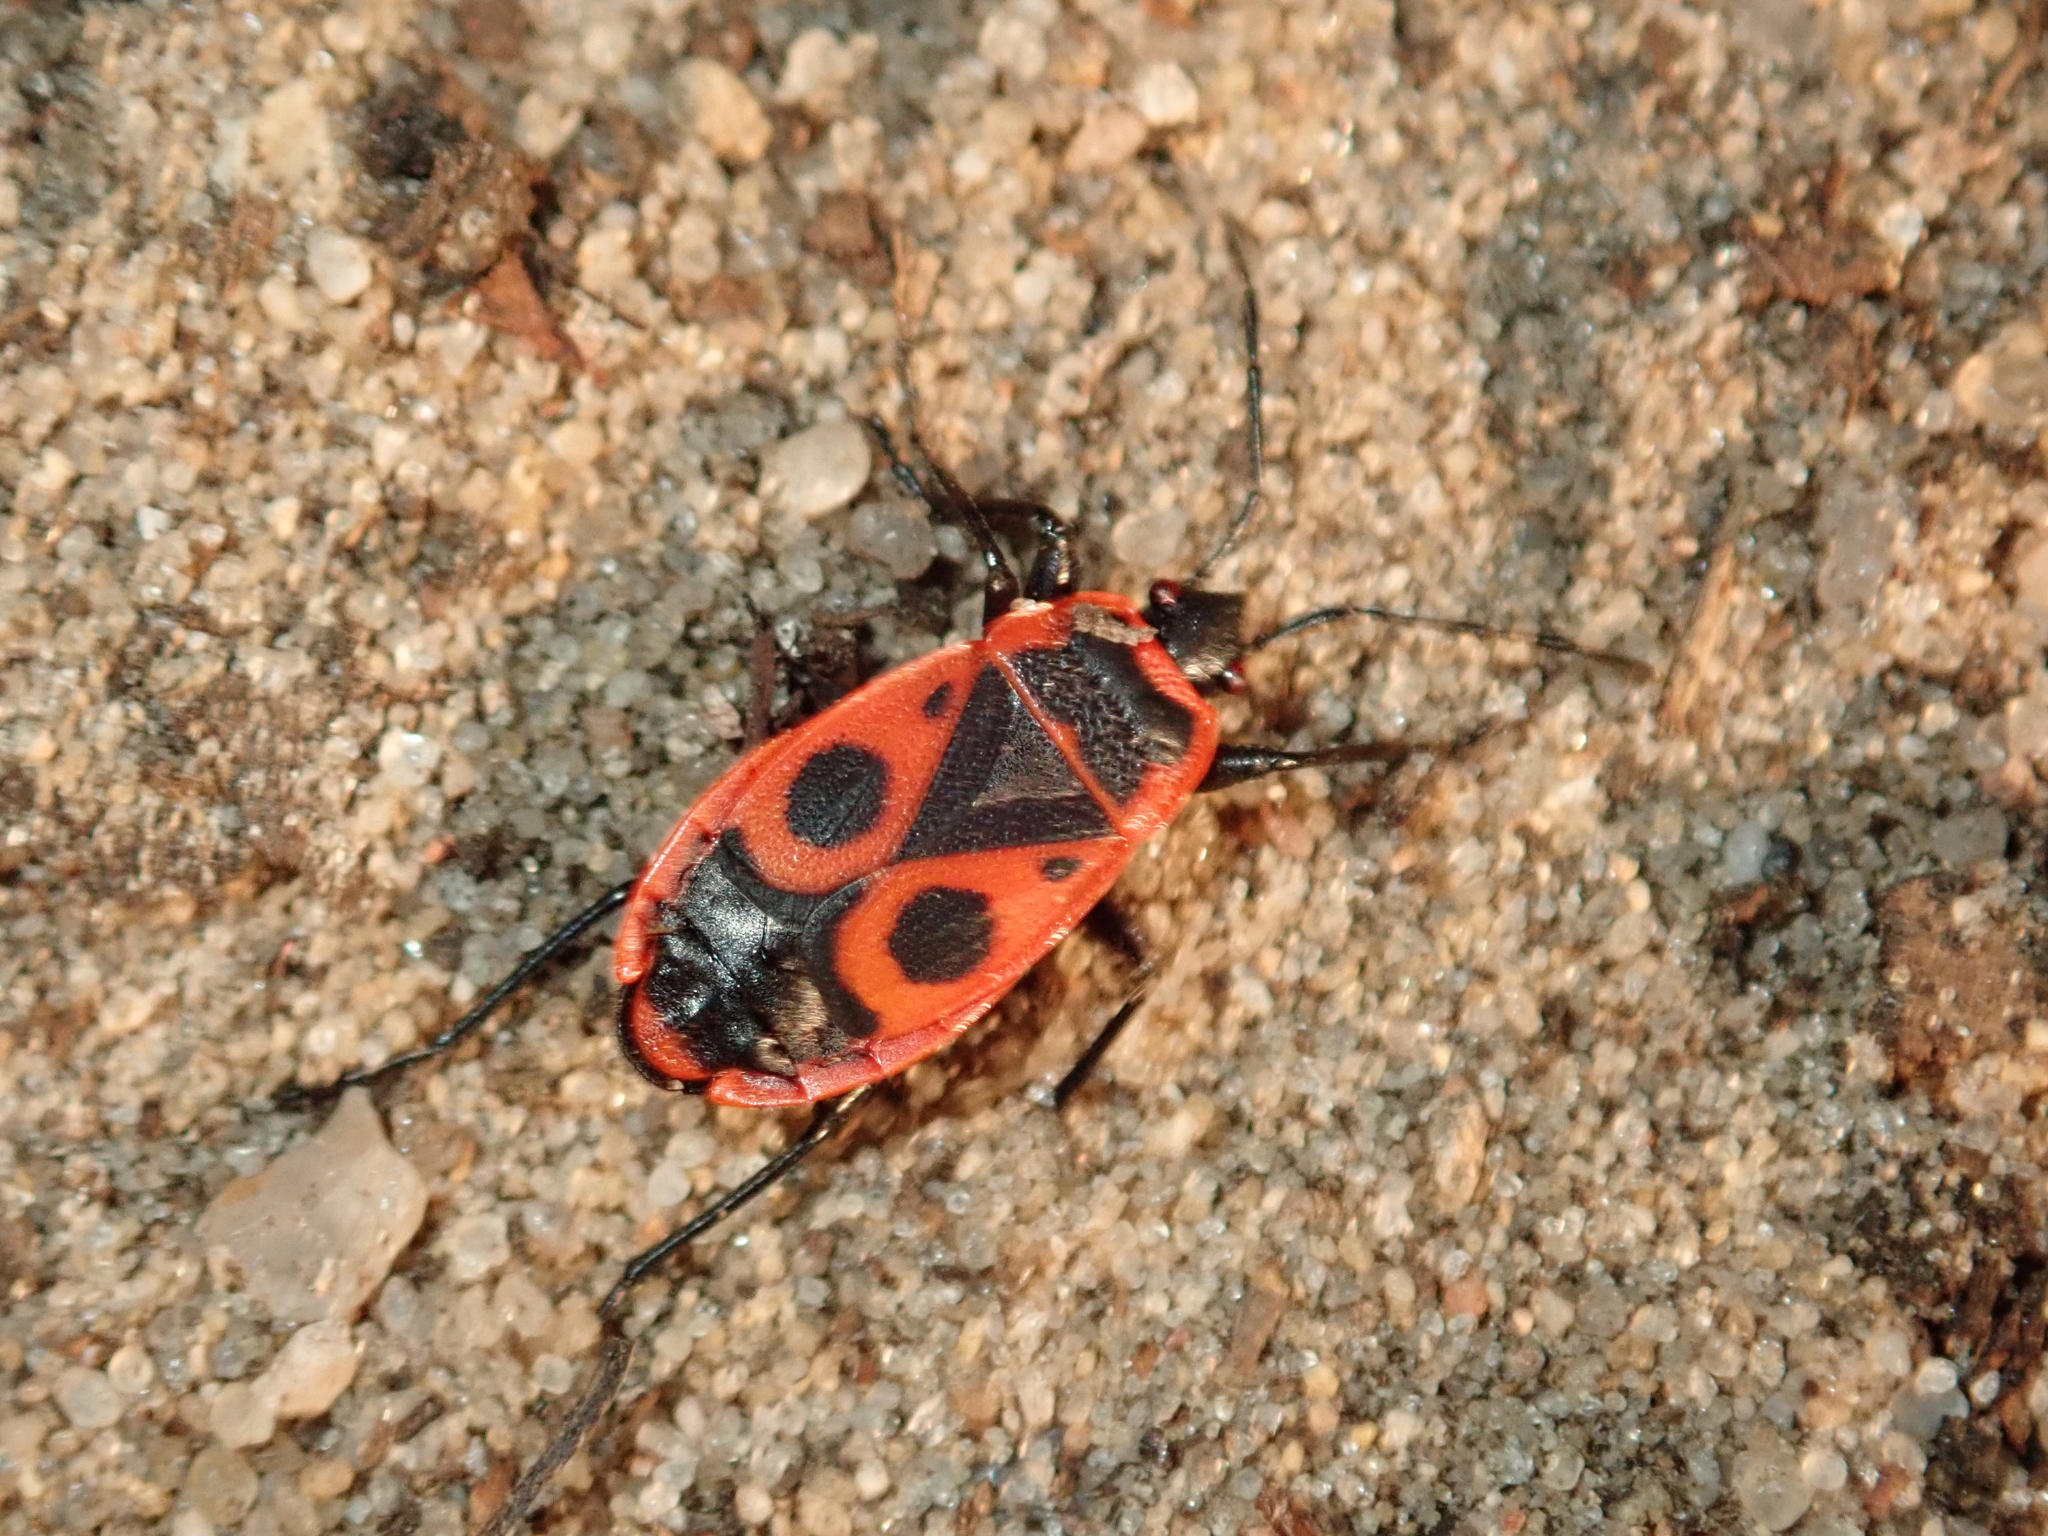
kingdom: Animalia
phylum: Arthropoda
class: Insecta
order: Hemiptera
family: Pyrrhocoridae
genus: Pyrrhocoris
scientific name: Pyrrhocoris apterus
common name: Firebug
